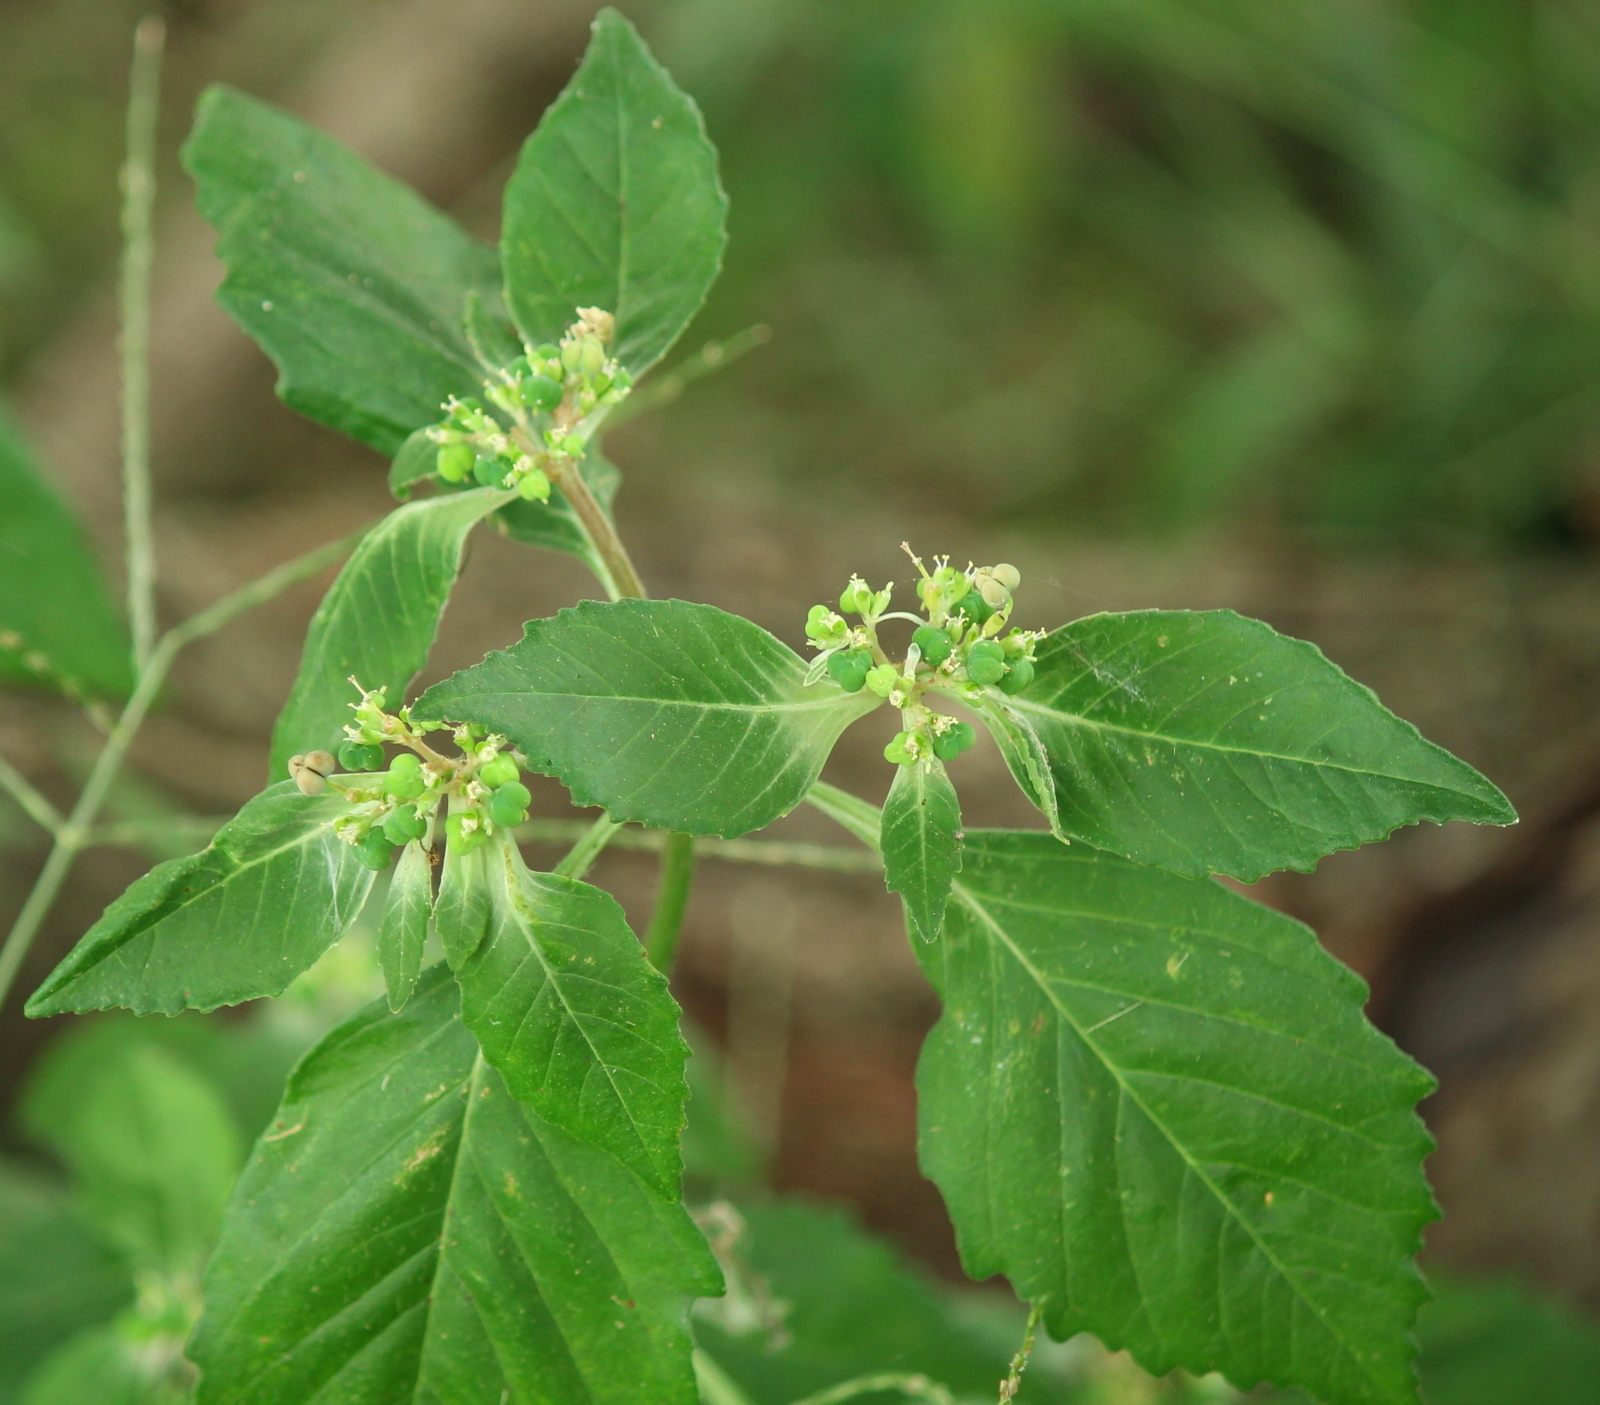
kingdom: Plantae
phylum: Tracheophyta
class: Magnoliopsida
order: Malpighiales
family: Euphorbiaceae
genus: Euphorbia
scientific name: Euphorbia dentata
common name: Dentate spurge
